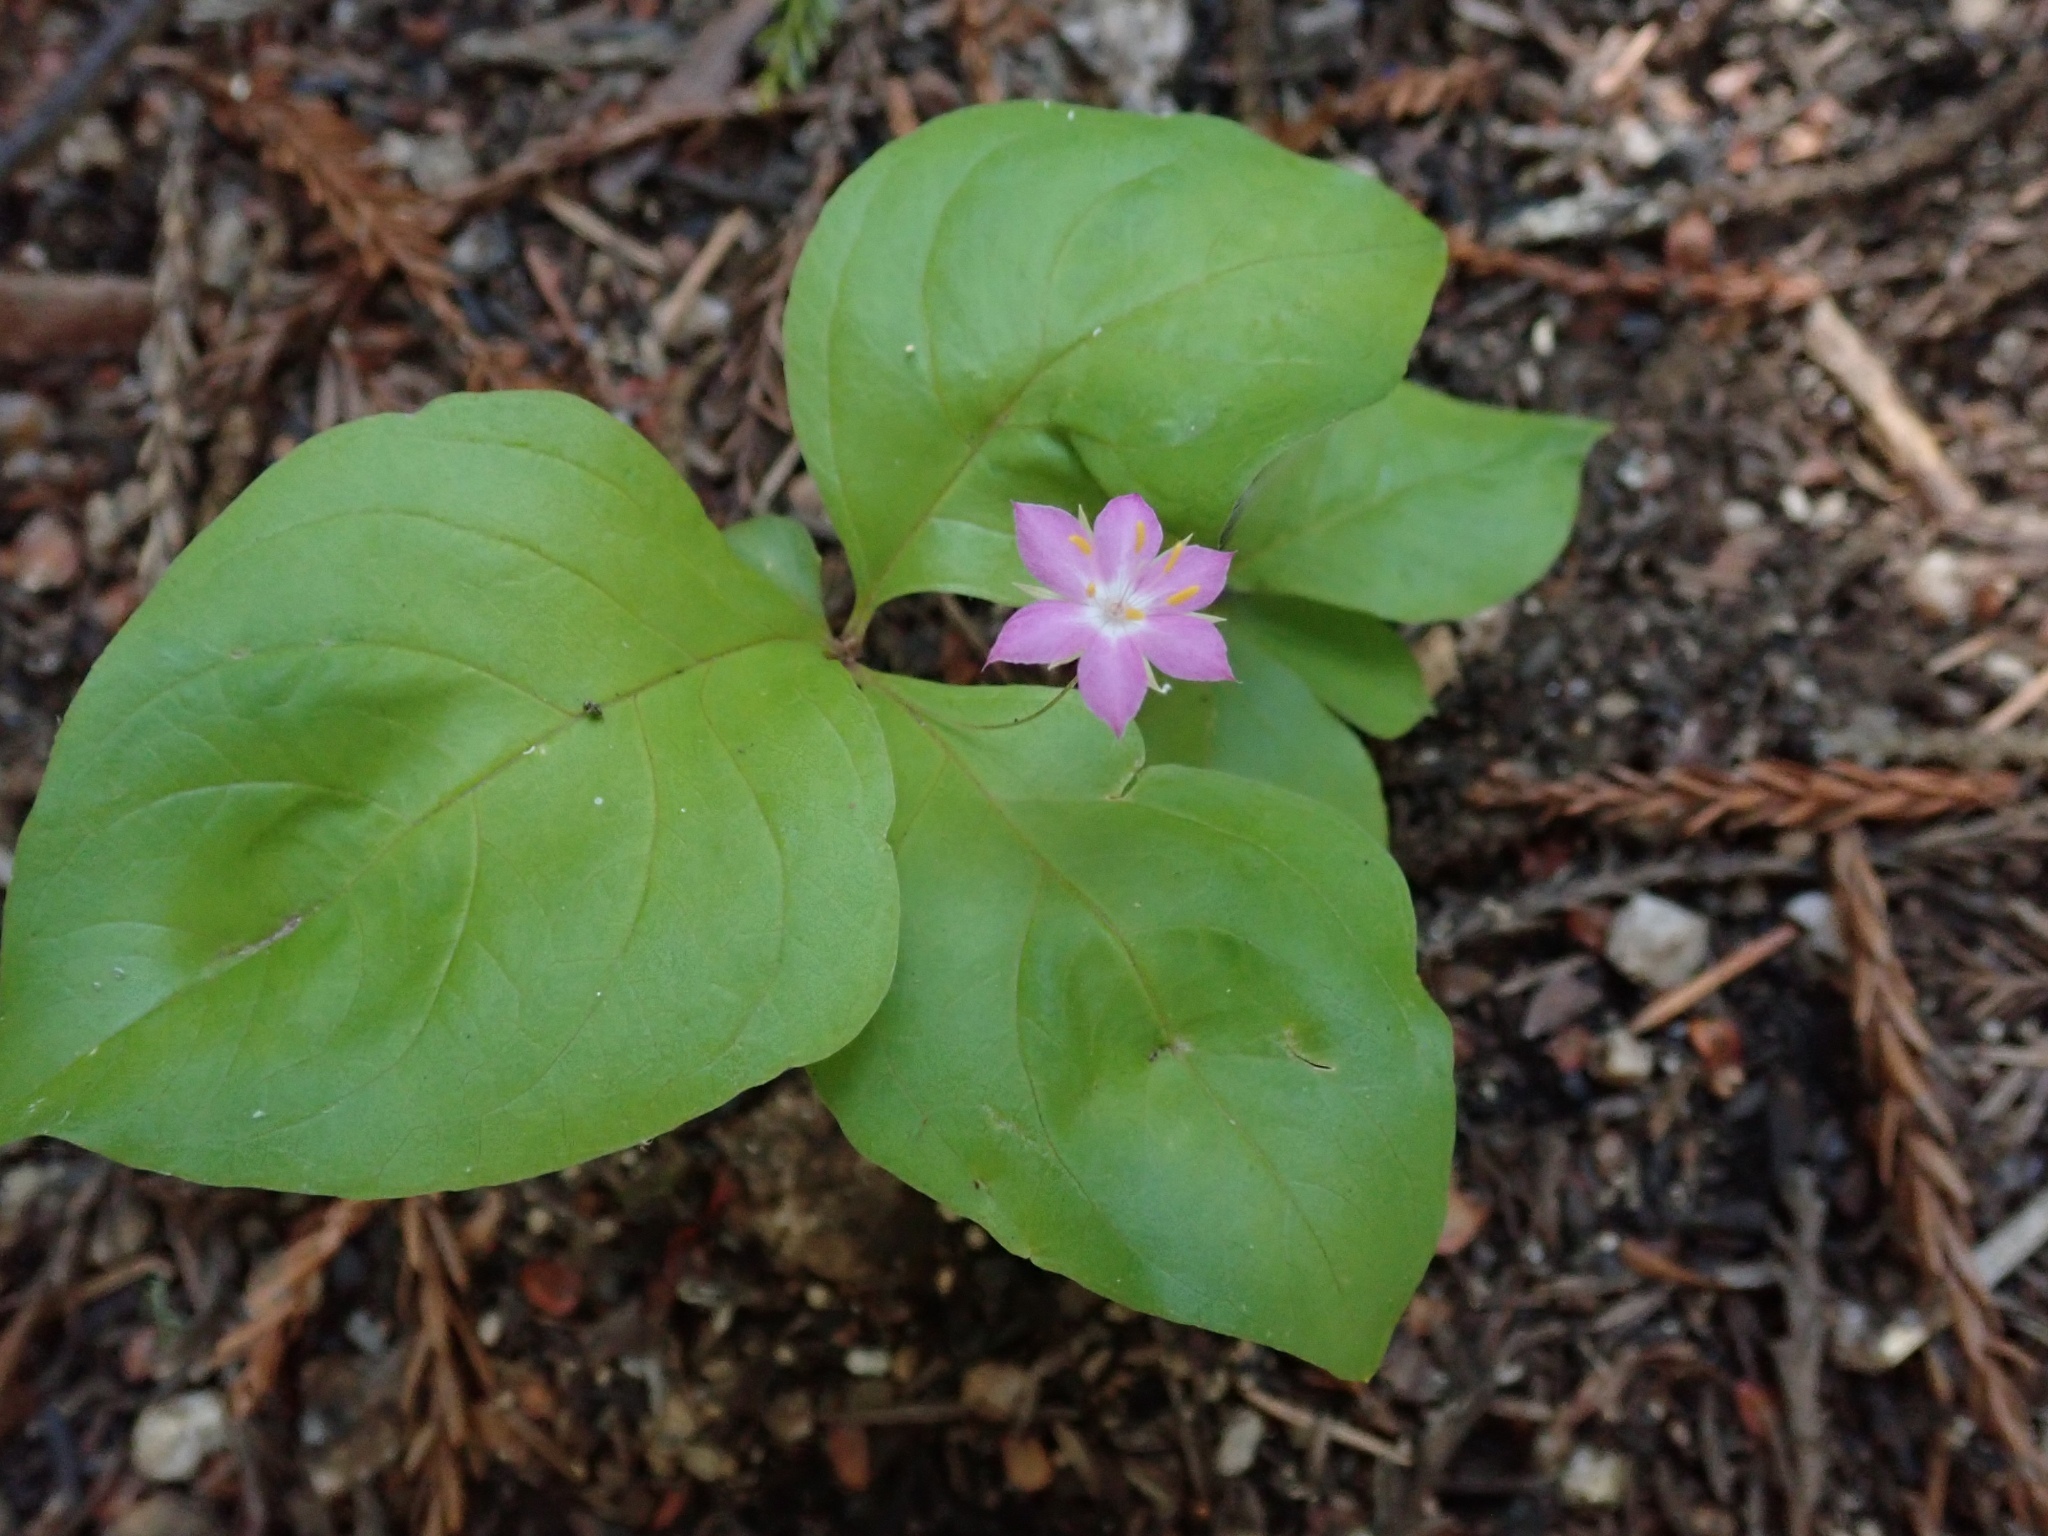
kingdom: Plantae
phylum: Tracheophyta
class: Magnoliopsida
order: Ericales
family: Primulaceae
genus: Lysimachia
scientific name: Lysimachia latifolia
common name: Pacific starflower
